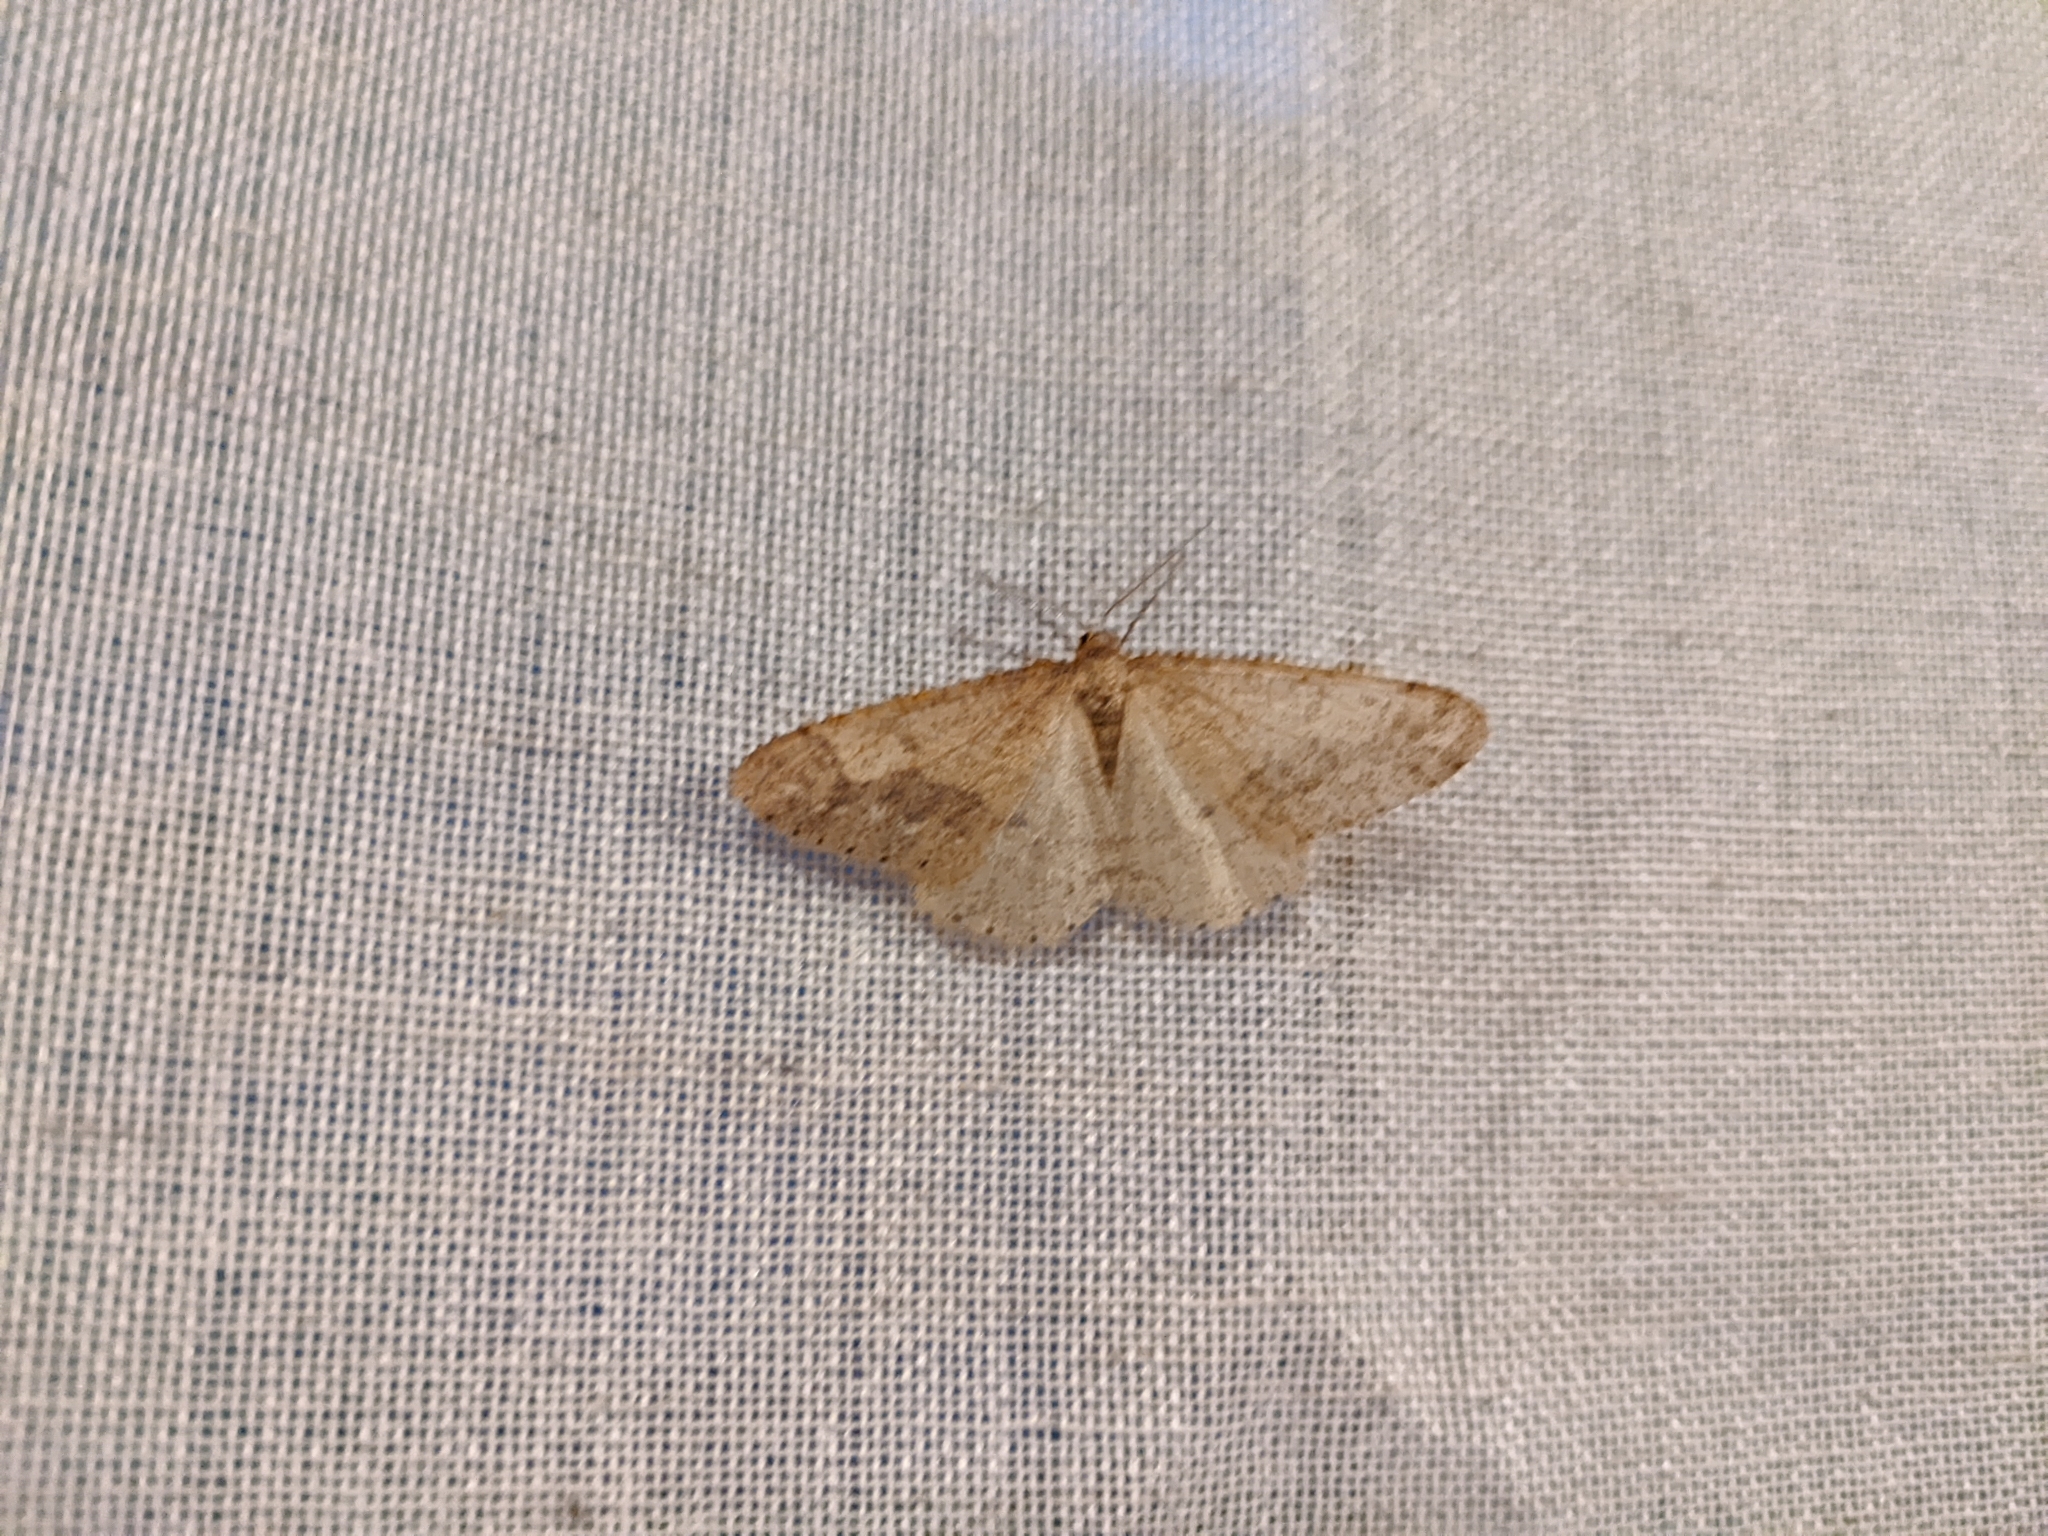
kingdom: Animalia
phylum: Arthropoda
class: Insecta
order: Lepidoptera
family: Geometridae
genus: Agriopis
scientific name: Agriopis marginaria
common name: Dotted border
